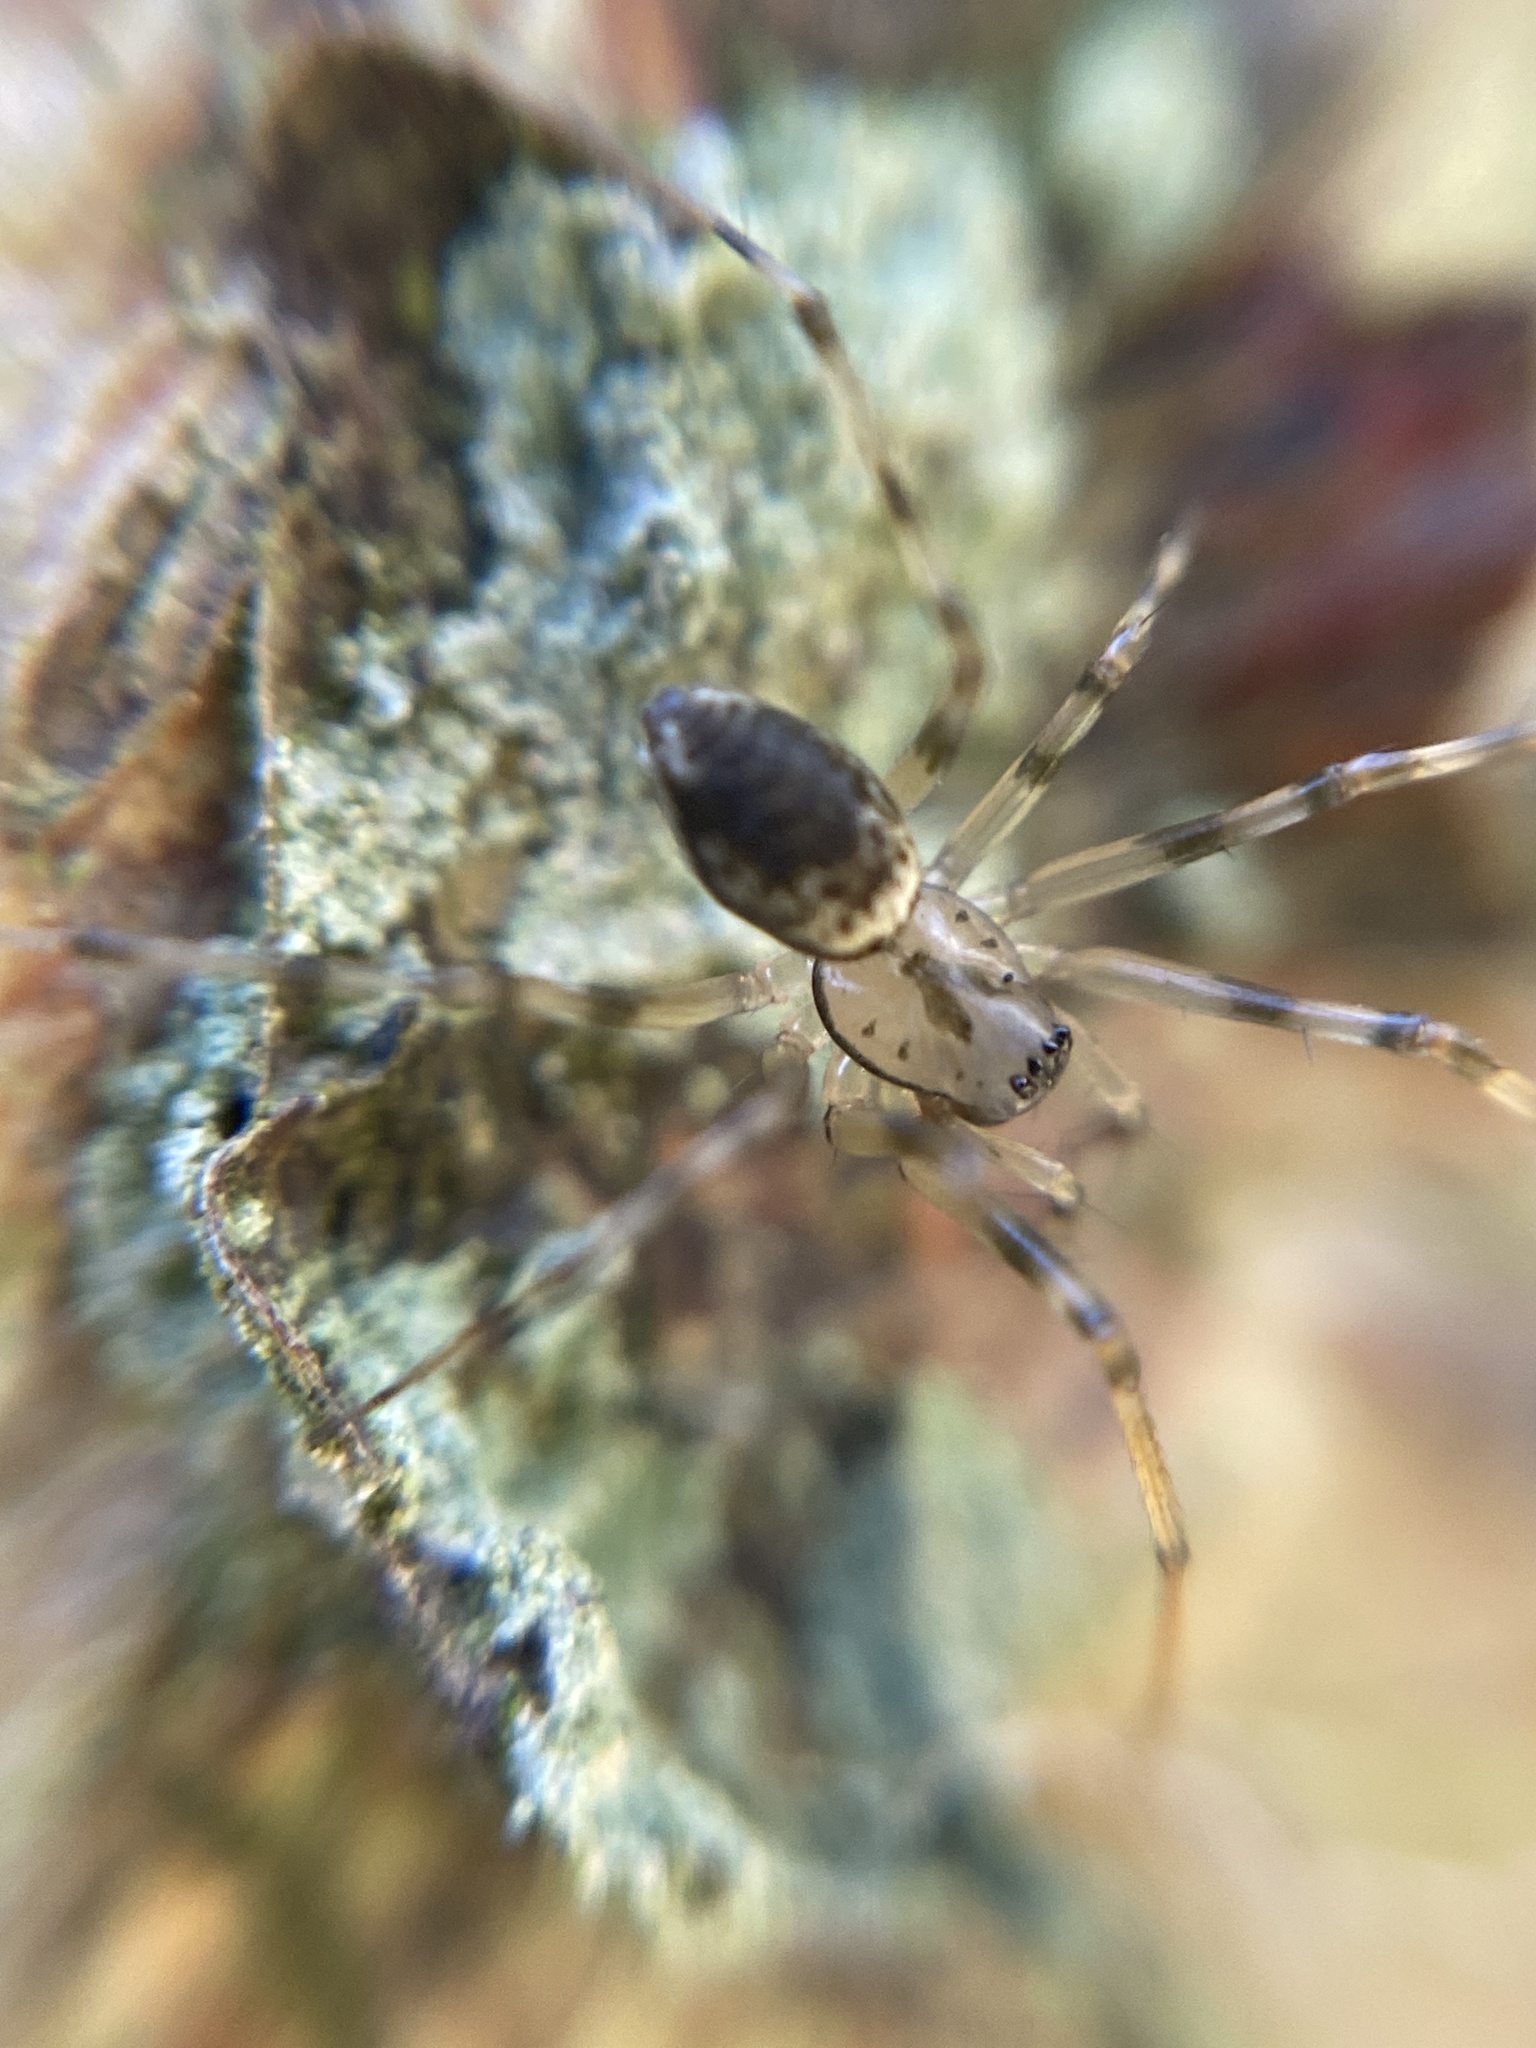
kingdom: Animalia
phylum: Arthropoda
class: Arachnida
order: Araneae
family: Linyphiidae
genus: Drapetisca
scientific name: Drapetisca socialis
